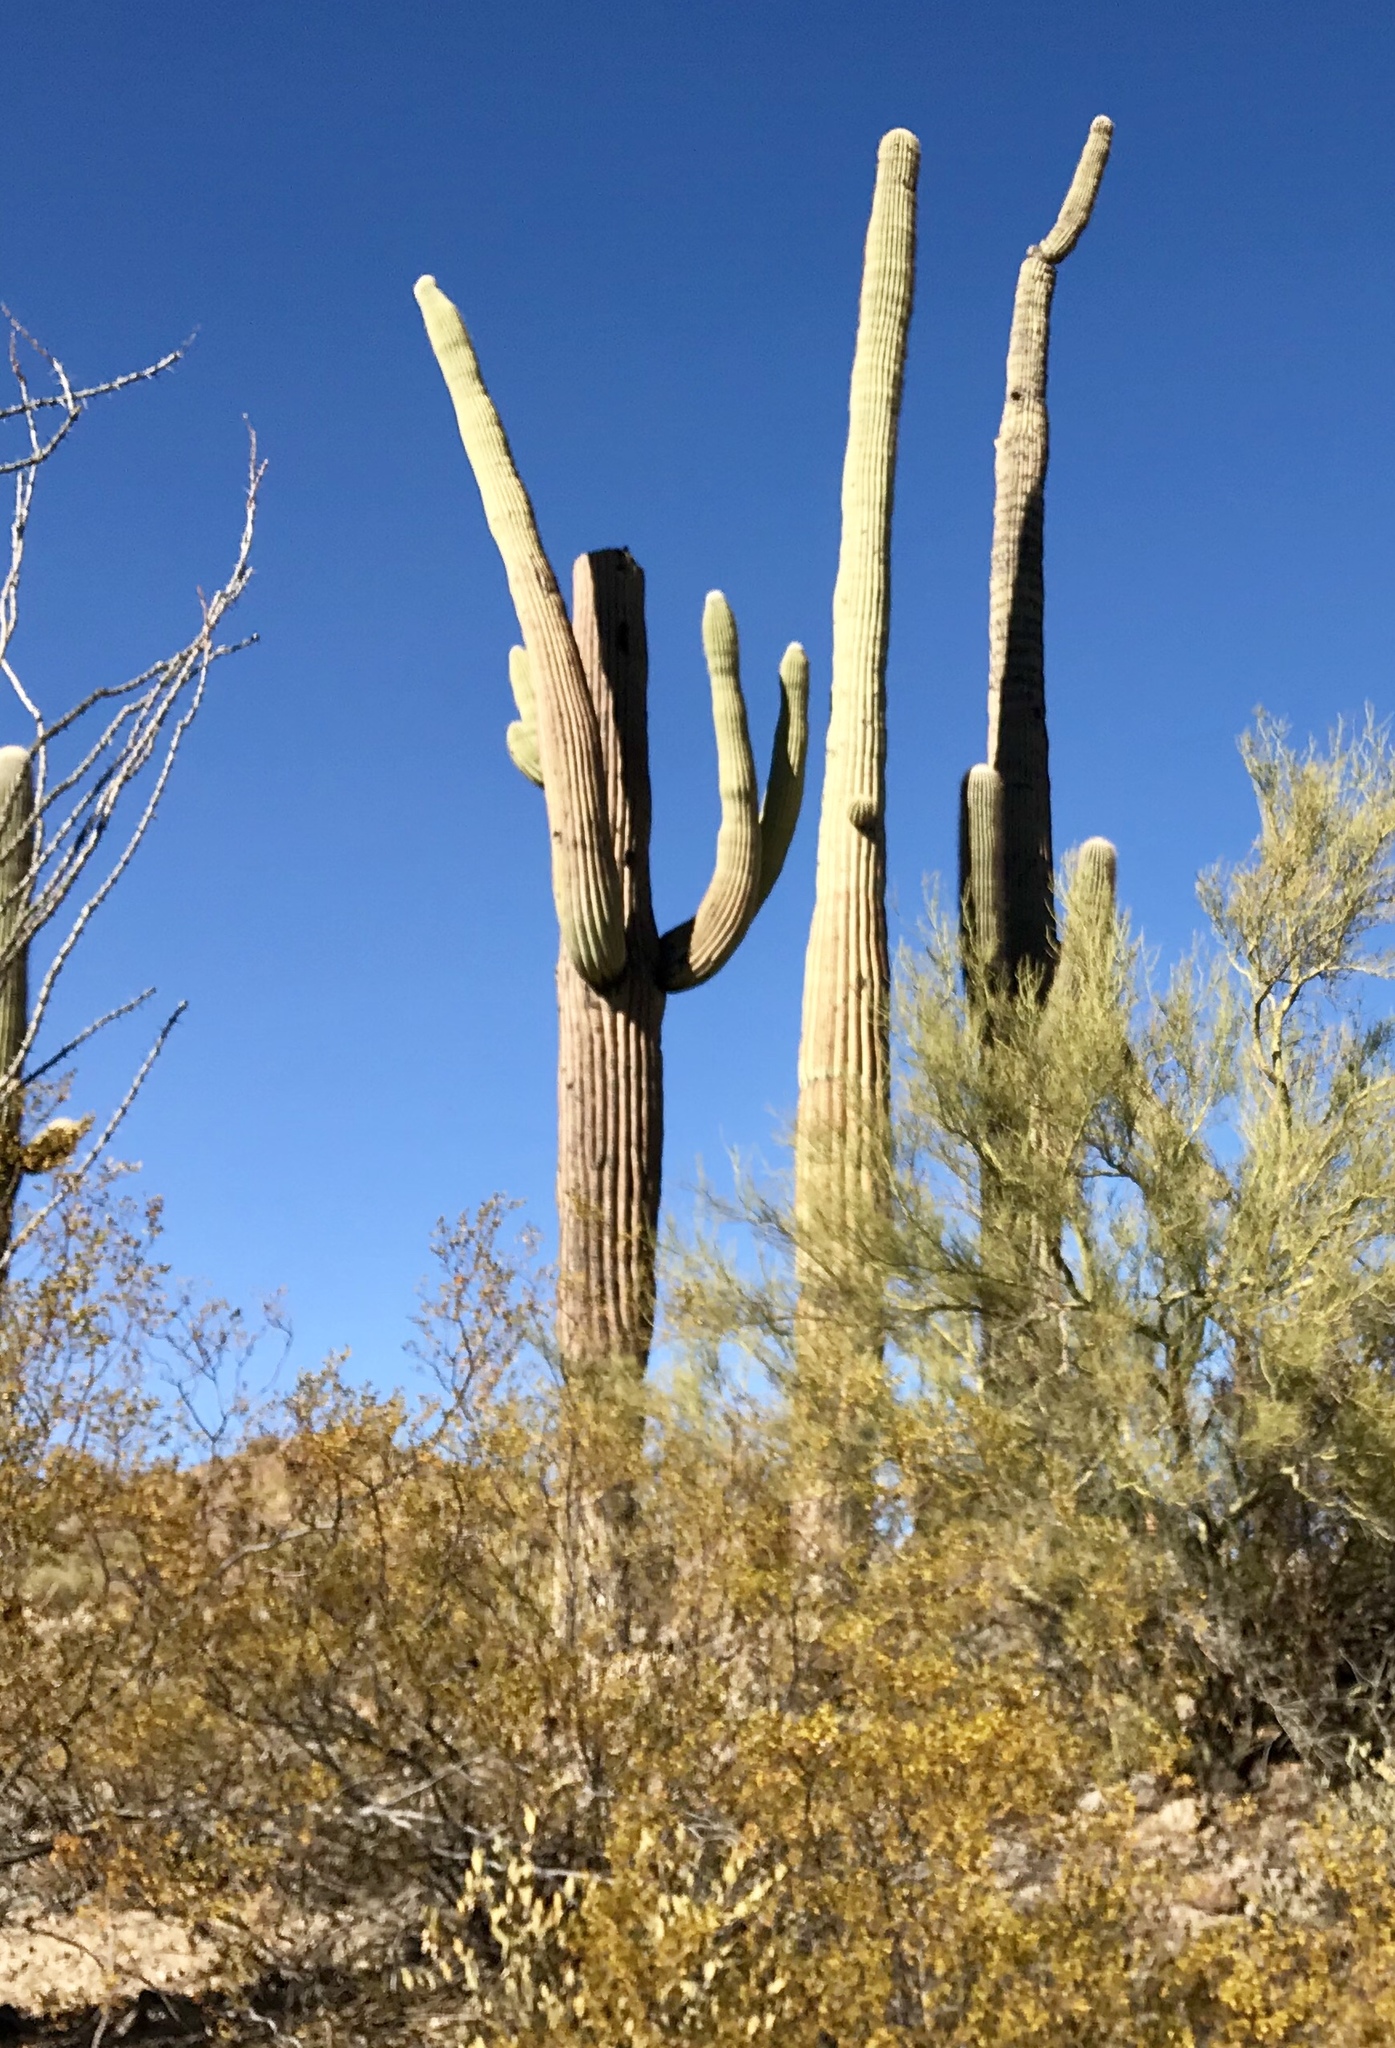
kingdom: Plantae
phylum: Tracheophyta
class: Magnoliopsida
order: Caryophyllales
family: Cactaceae
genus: Carnegiea
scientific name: Carnegiea gigantea
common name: Saguaro
